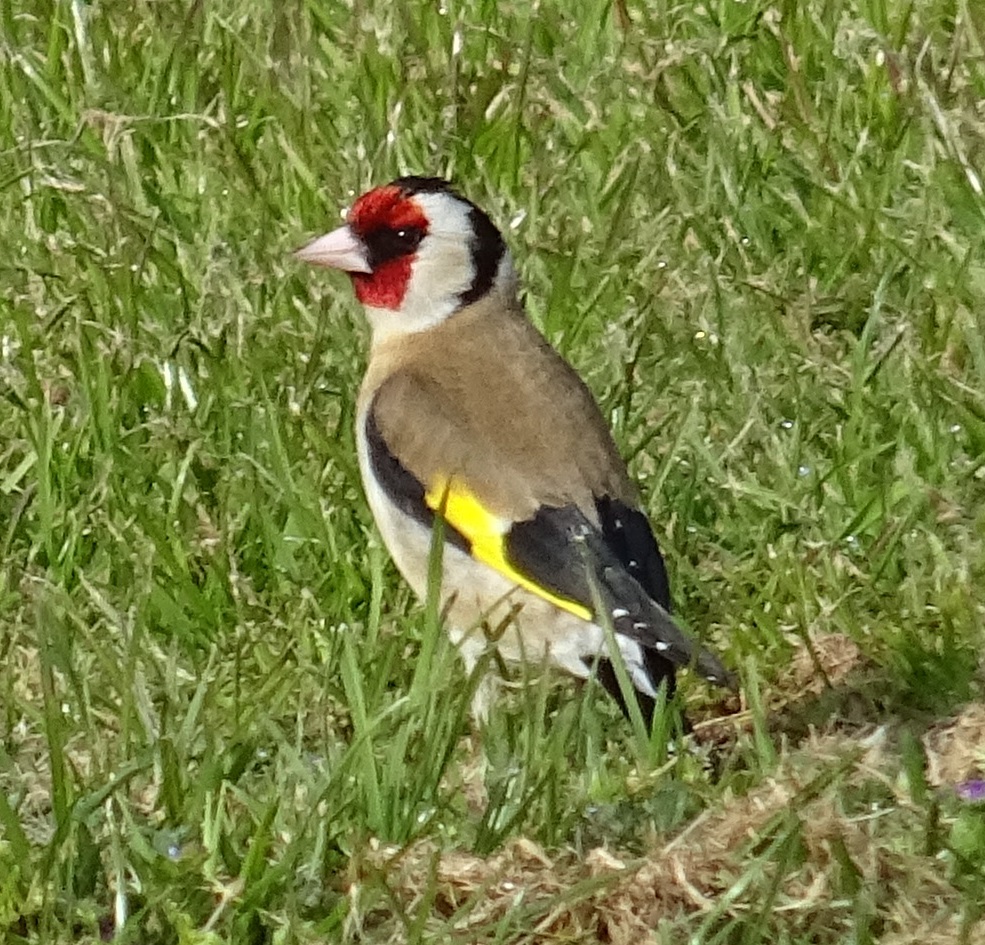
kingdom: Animalia
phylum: Chordata
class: Aves
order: Passeriformes
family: Fringillidae
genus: Carduelis
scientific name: Carduelis carduelis
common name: European goldfinch
